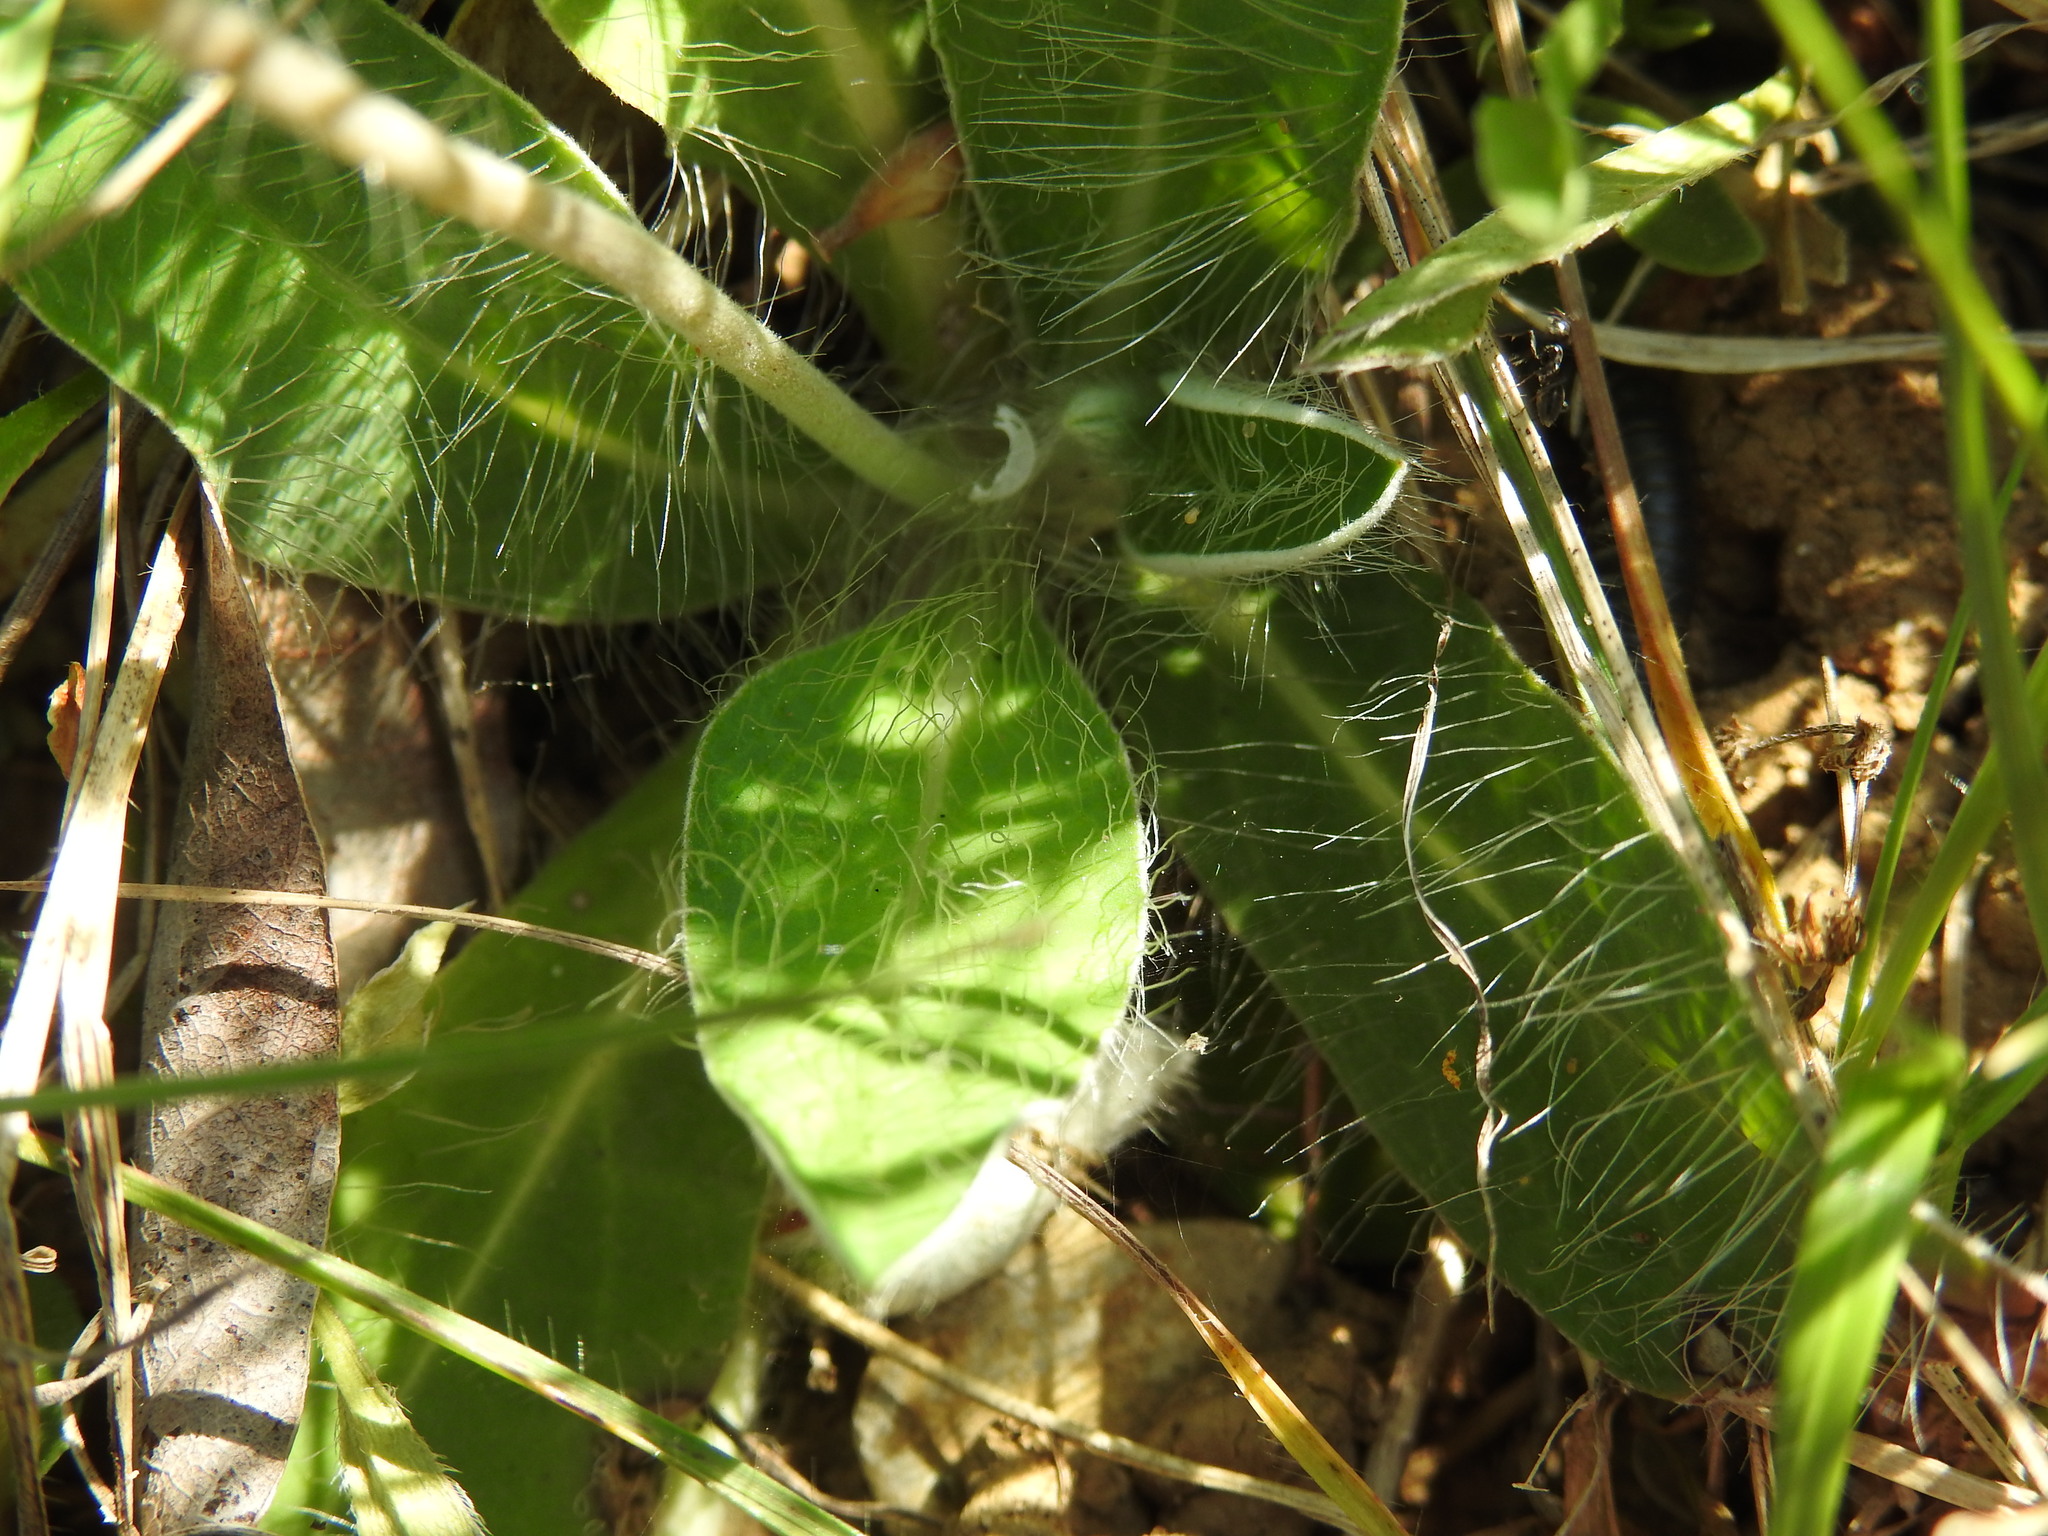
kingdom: Plantae
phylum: Tracheophyta
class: Magnoliopsida
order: Asterales
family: Asteraceae
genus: Pilosella
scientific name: Pilosella officinarum
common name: Mouse-ear hawkweed
